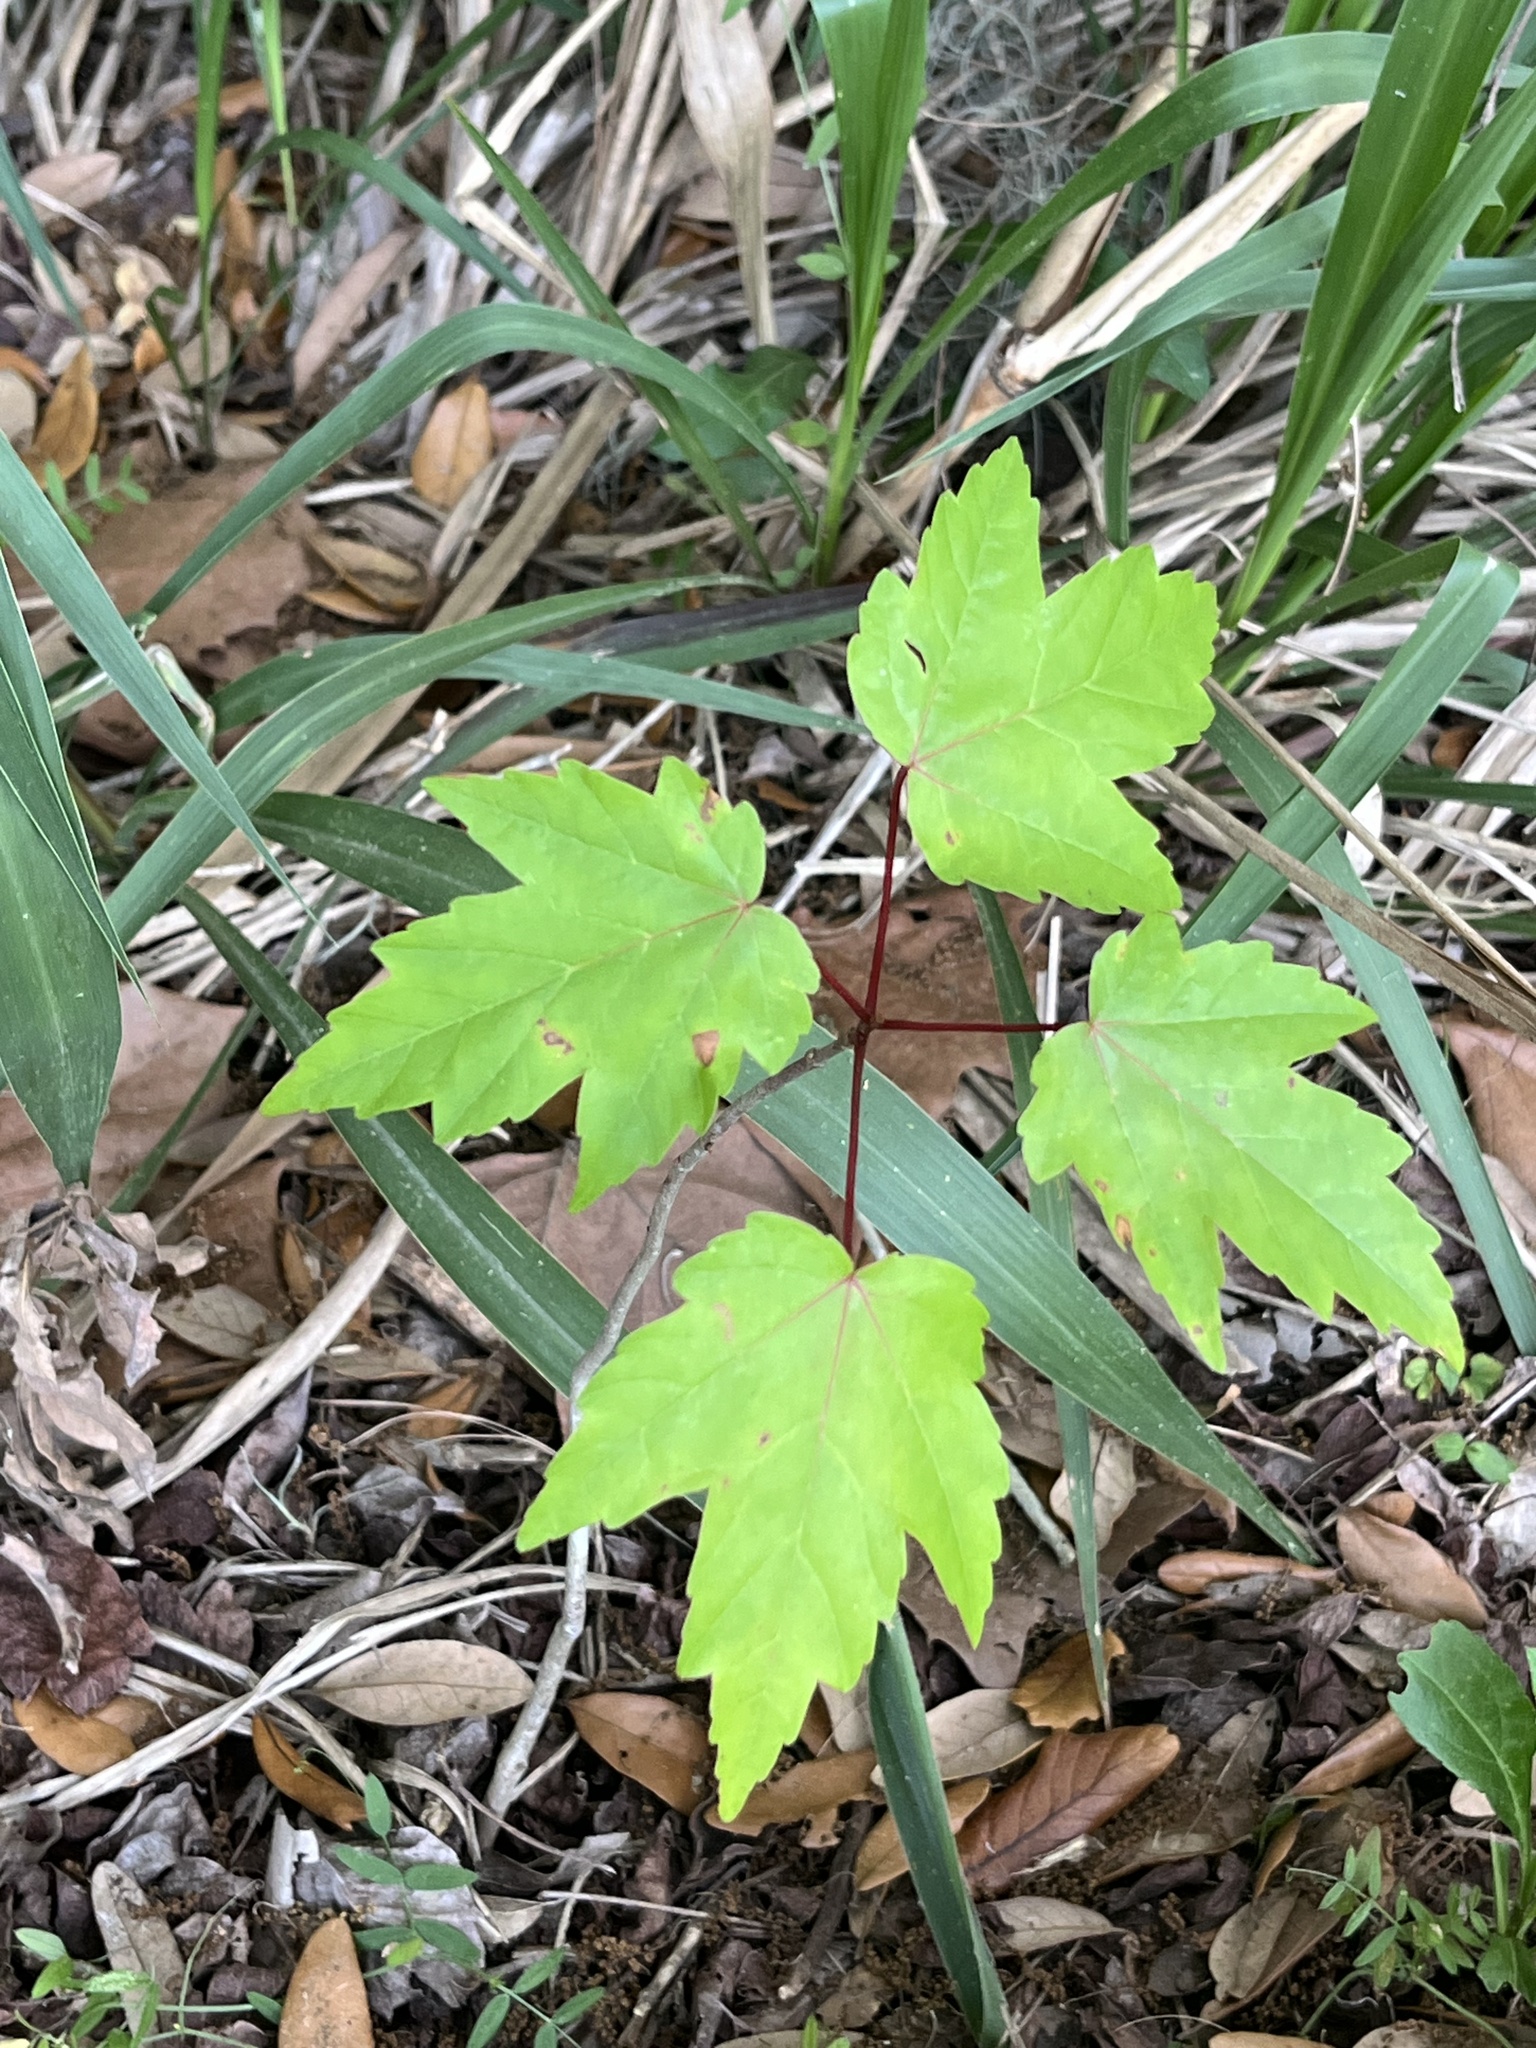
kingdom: Plantae
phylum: Tracheophyta
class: Magnoliopsida
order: Sapindales
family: Sapindaceae
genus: Acer
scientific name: Acer rubrum
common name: Red maple
